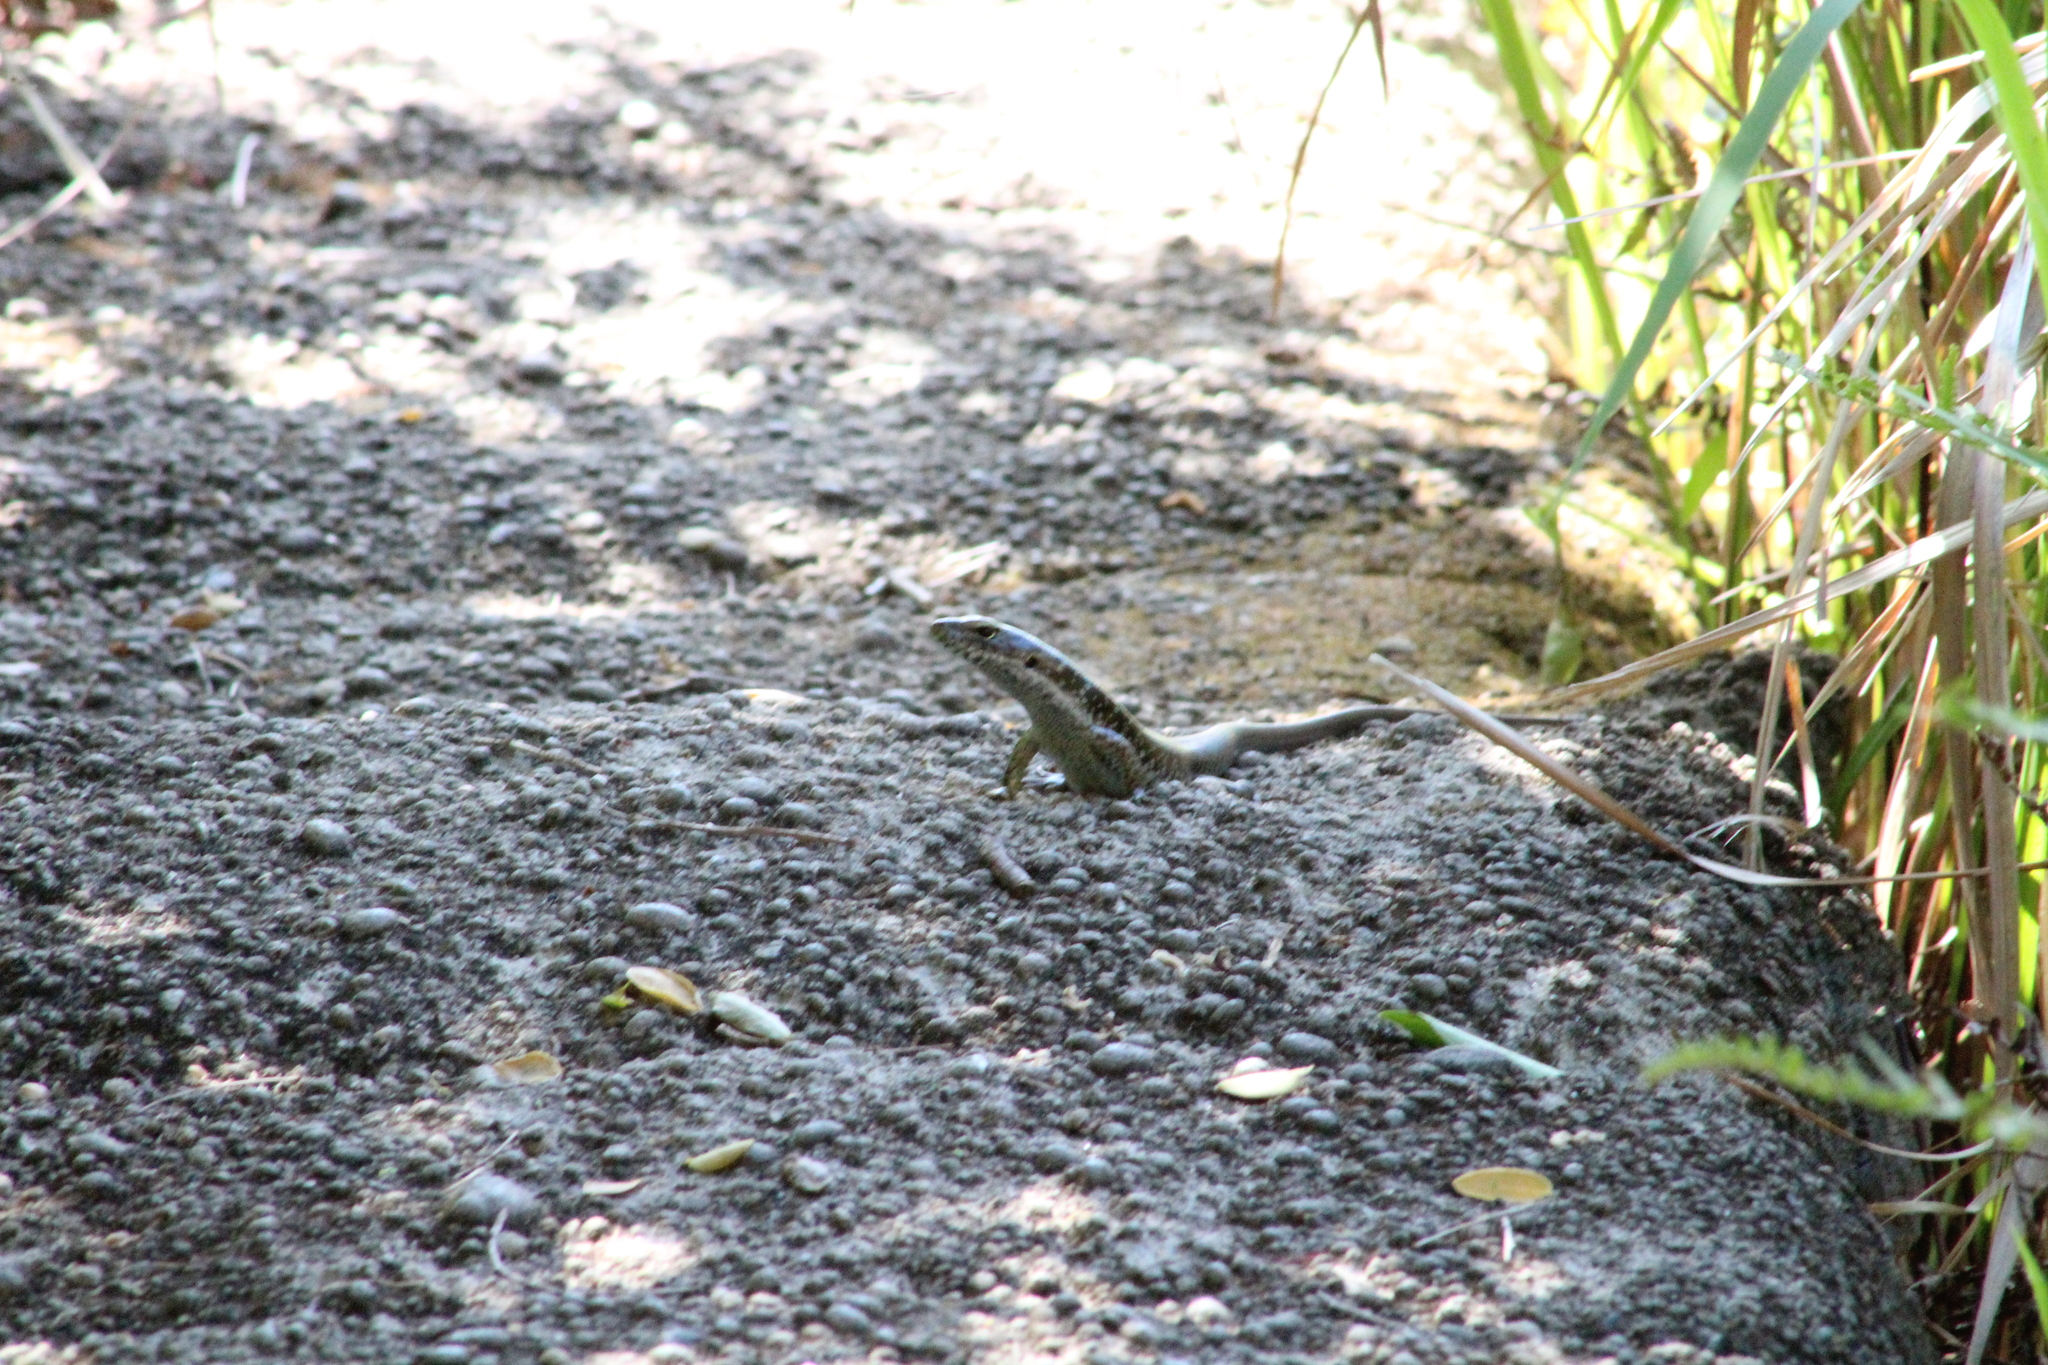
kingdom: Animalia
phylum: Chordata
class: Squamata
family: Scincidae
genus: Eulamprus
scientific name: Eulamprus quoyii
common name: Eastern water skink
